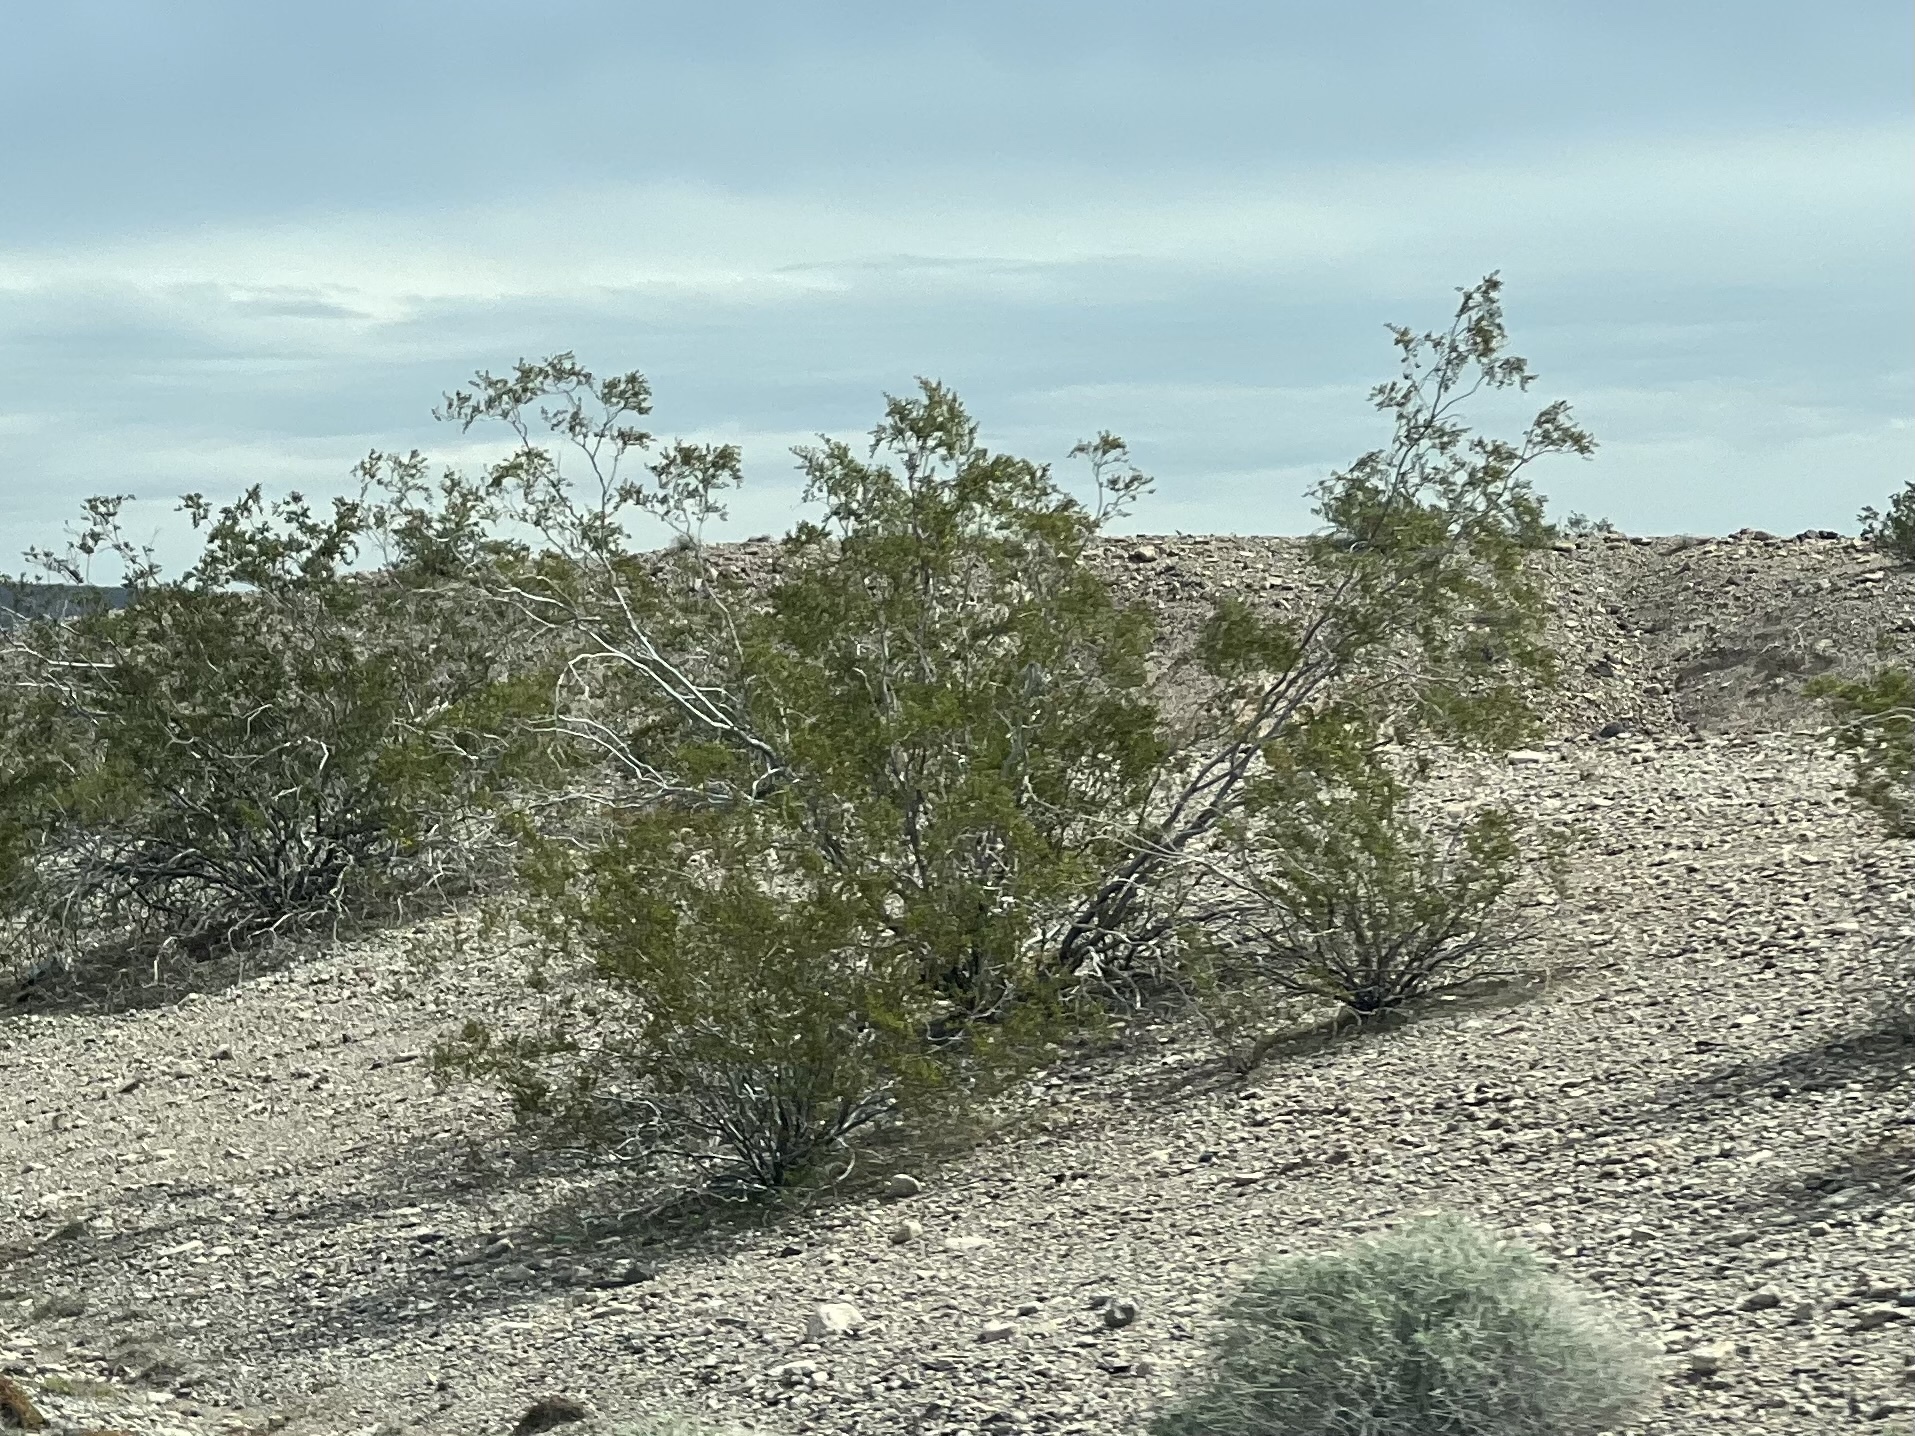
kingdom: Plantae
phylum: Tracheophyta
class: Magnoliopsida
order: Zygophyllales
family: Zygophyllaceae
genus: Larrea
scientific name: Larrea tridentata
